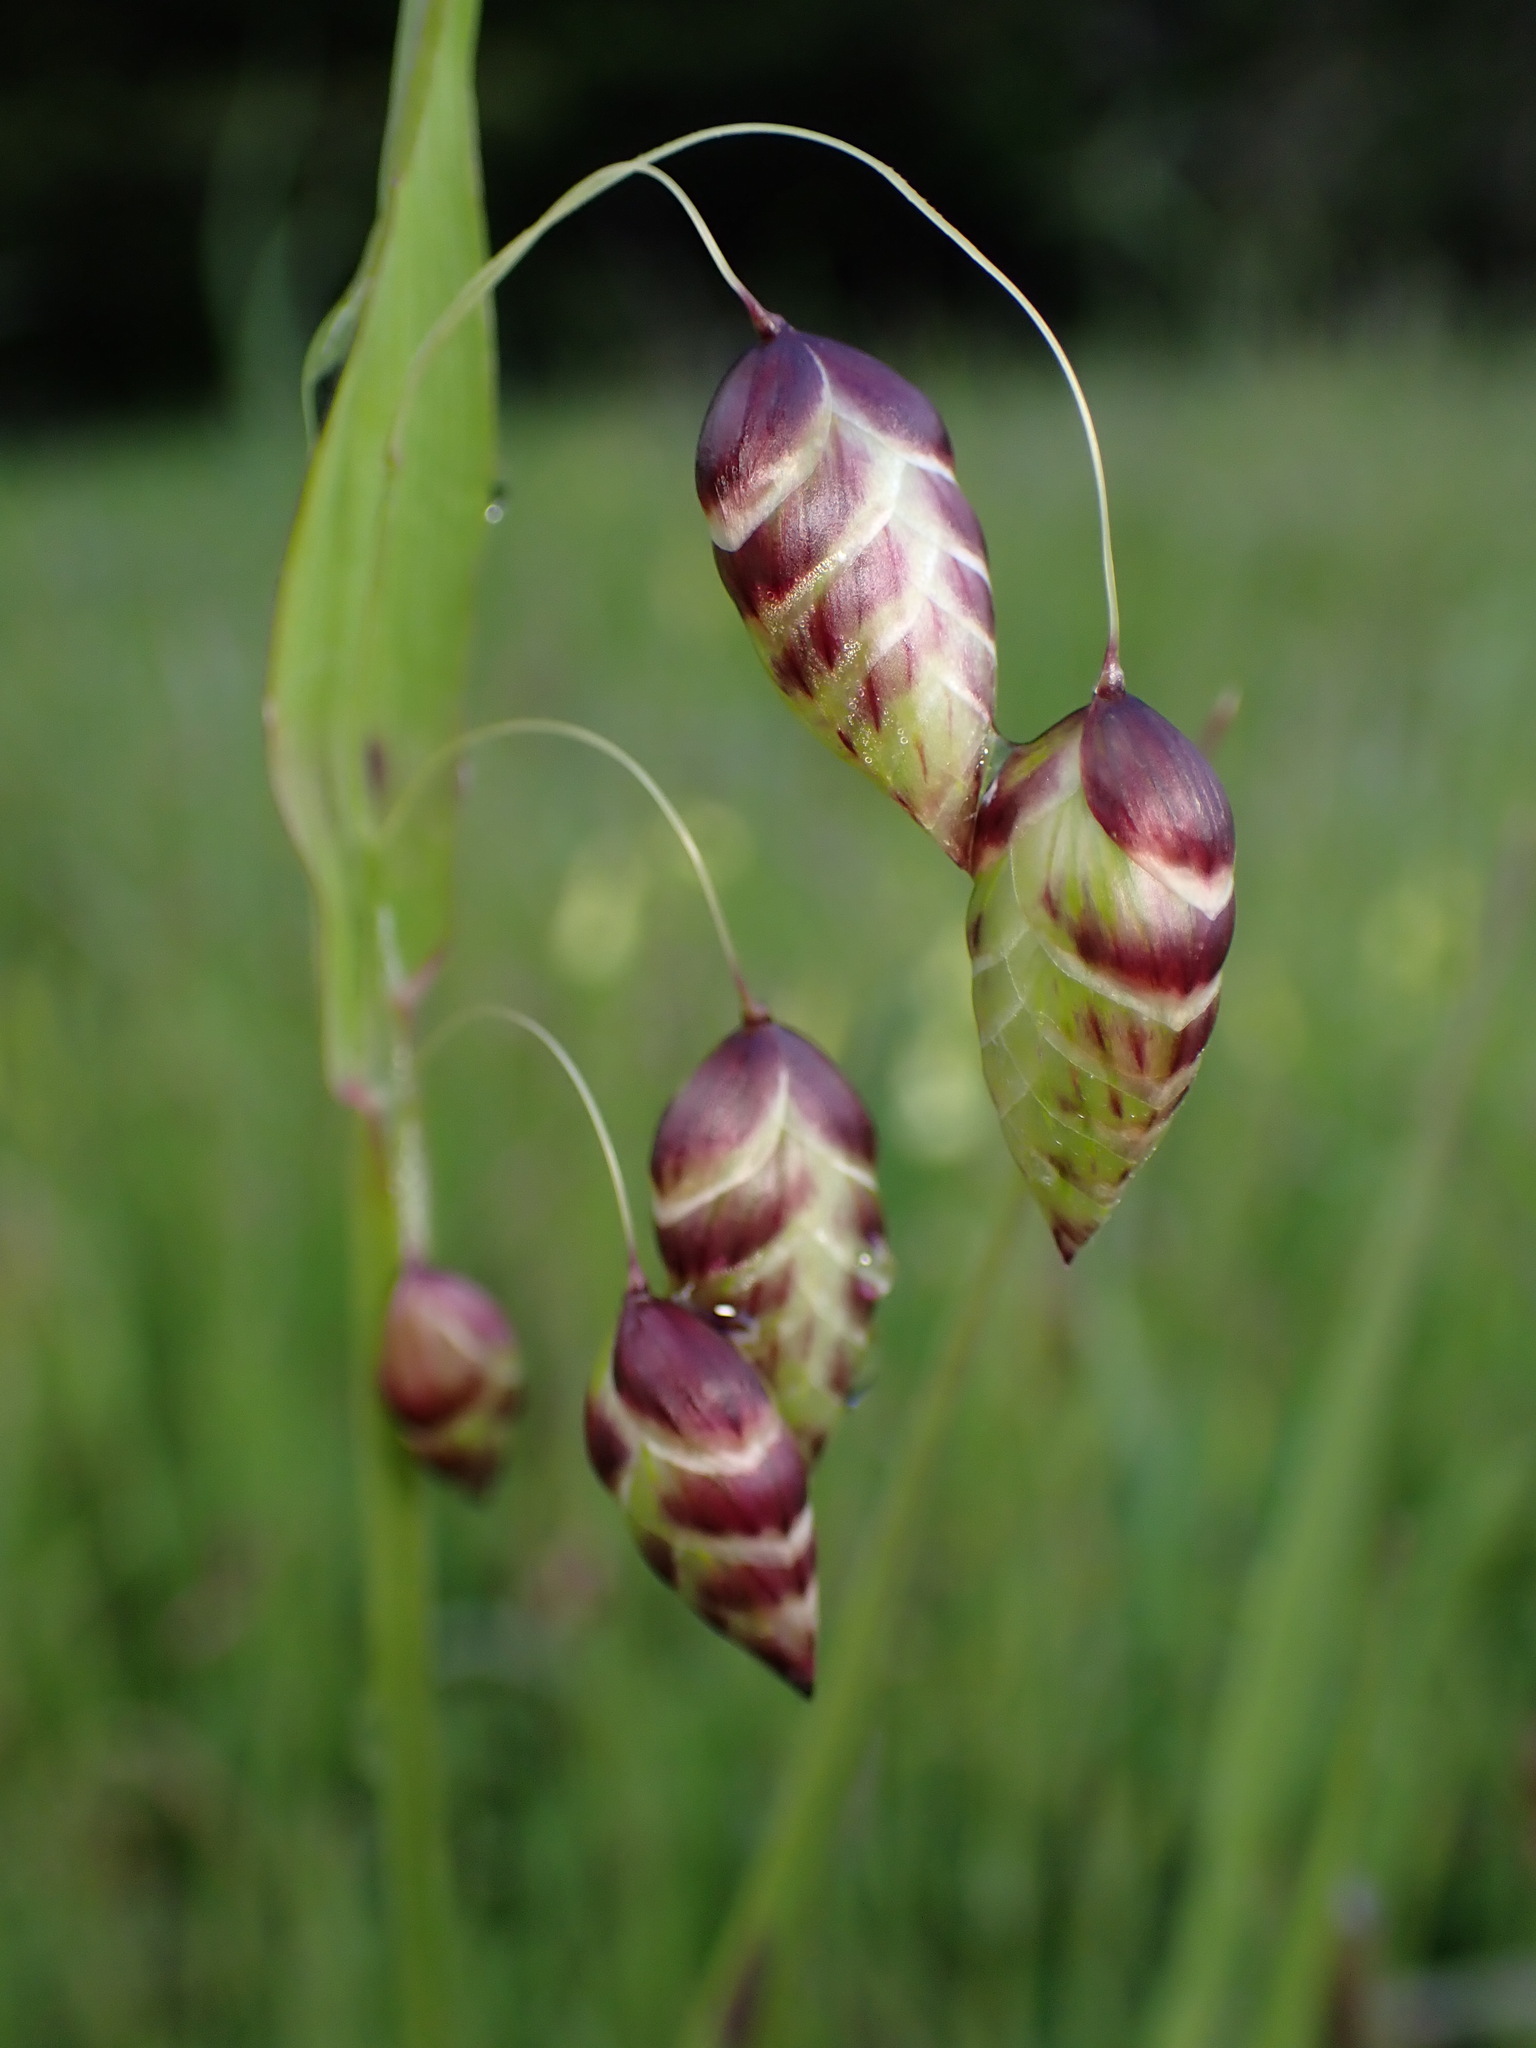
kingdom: Plantae
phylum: Tracheophyta
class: Liliopsida
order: Poales
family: Poaceae
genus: Briza
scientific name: Briza maxima
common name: Big quakinggrass
